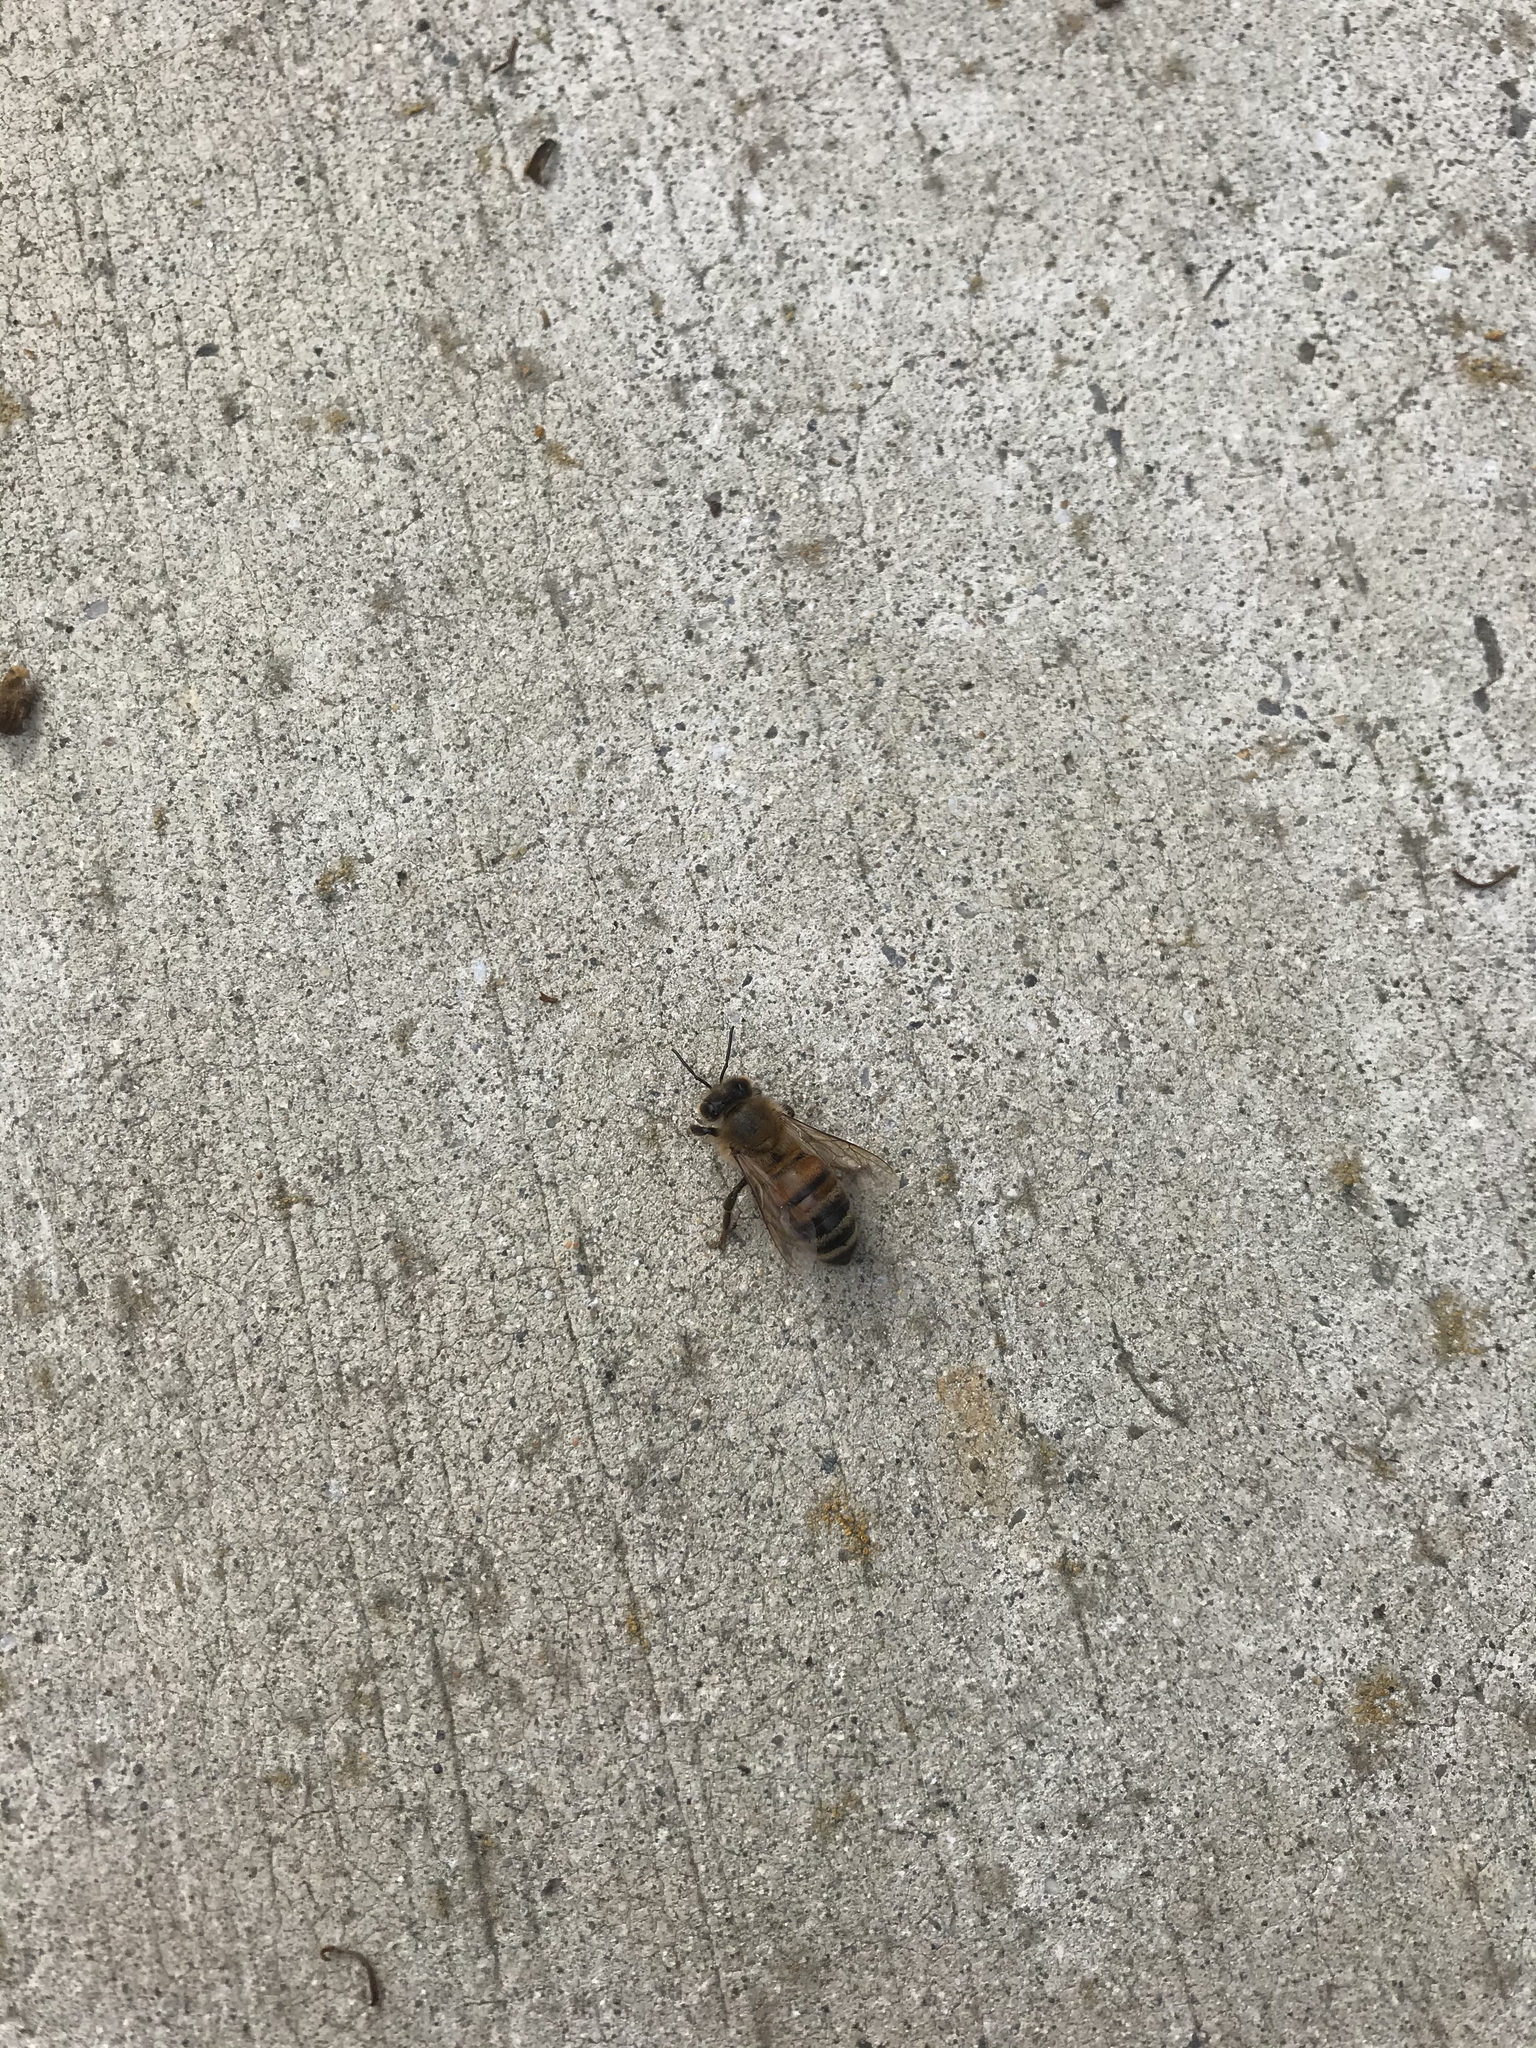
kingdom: Animalia
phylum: Arthropoda
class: Insecta
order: Hymenoptera
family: Apidae
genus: Apis
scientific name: Apis mellifera
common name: Honey bee
